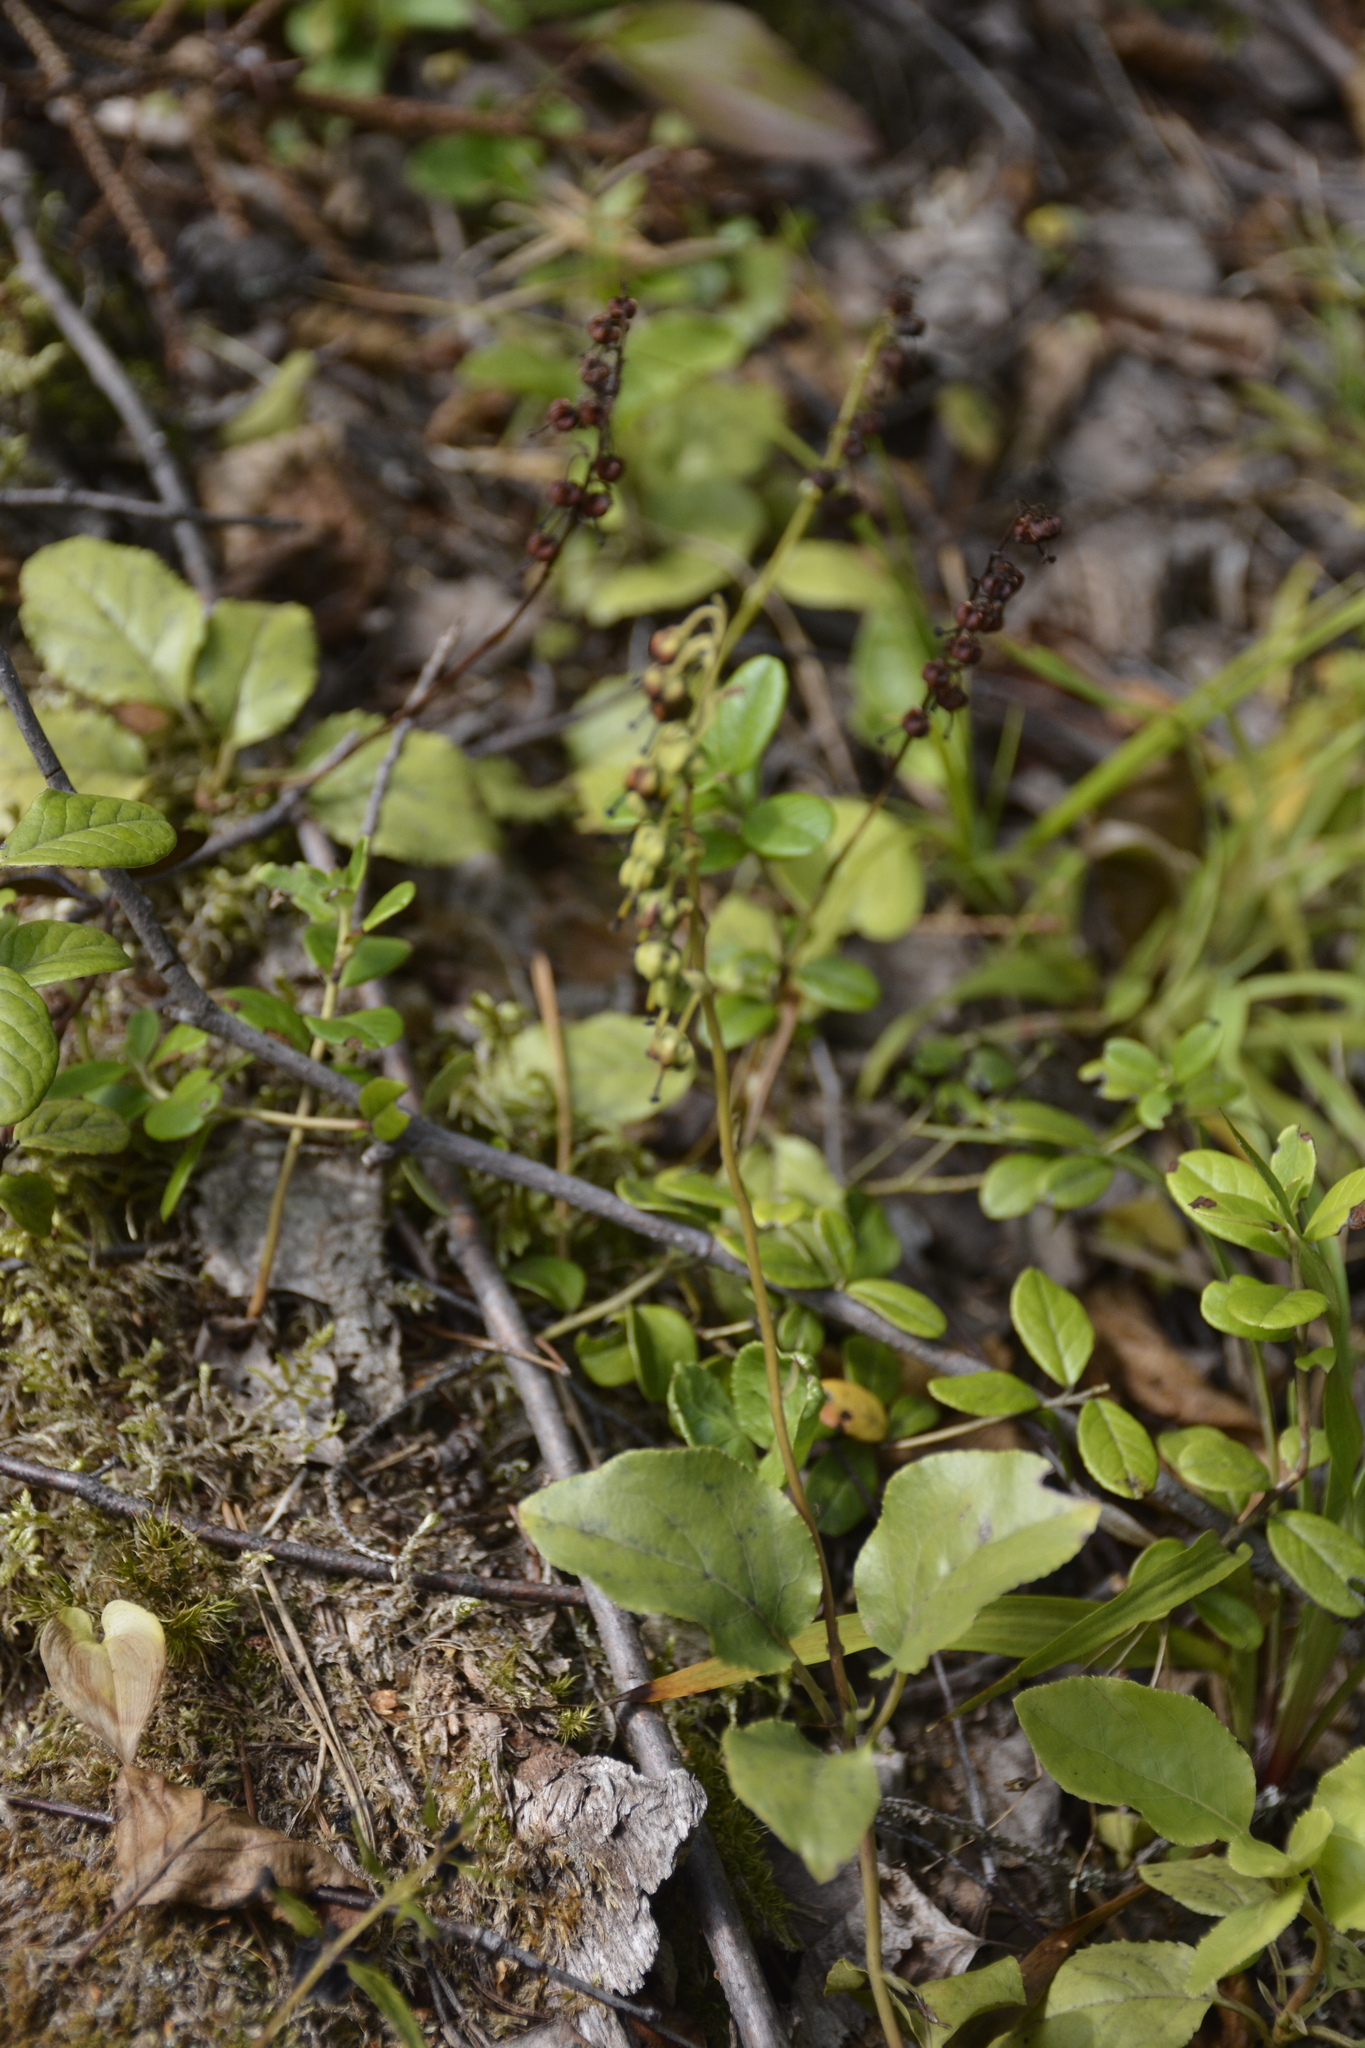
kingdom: Plantae
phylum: Tracheophyta
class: Magnoliopsida
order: Ericales
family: Ericaceae
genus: Orthilia
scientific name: Orthilia secunda
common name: One-sided orthilia
